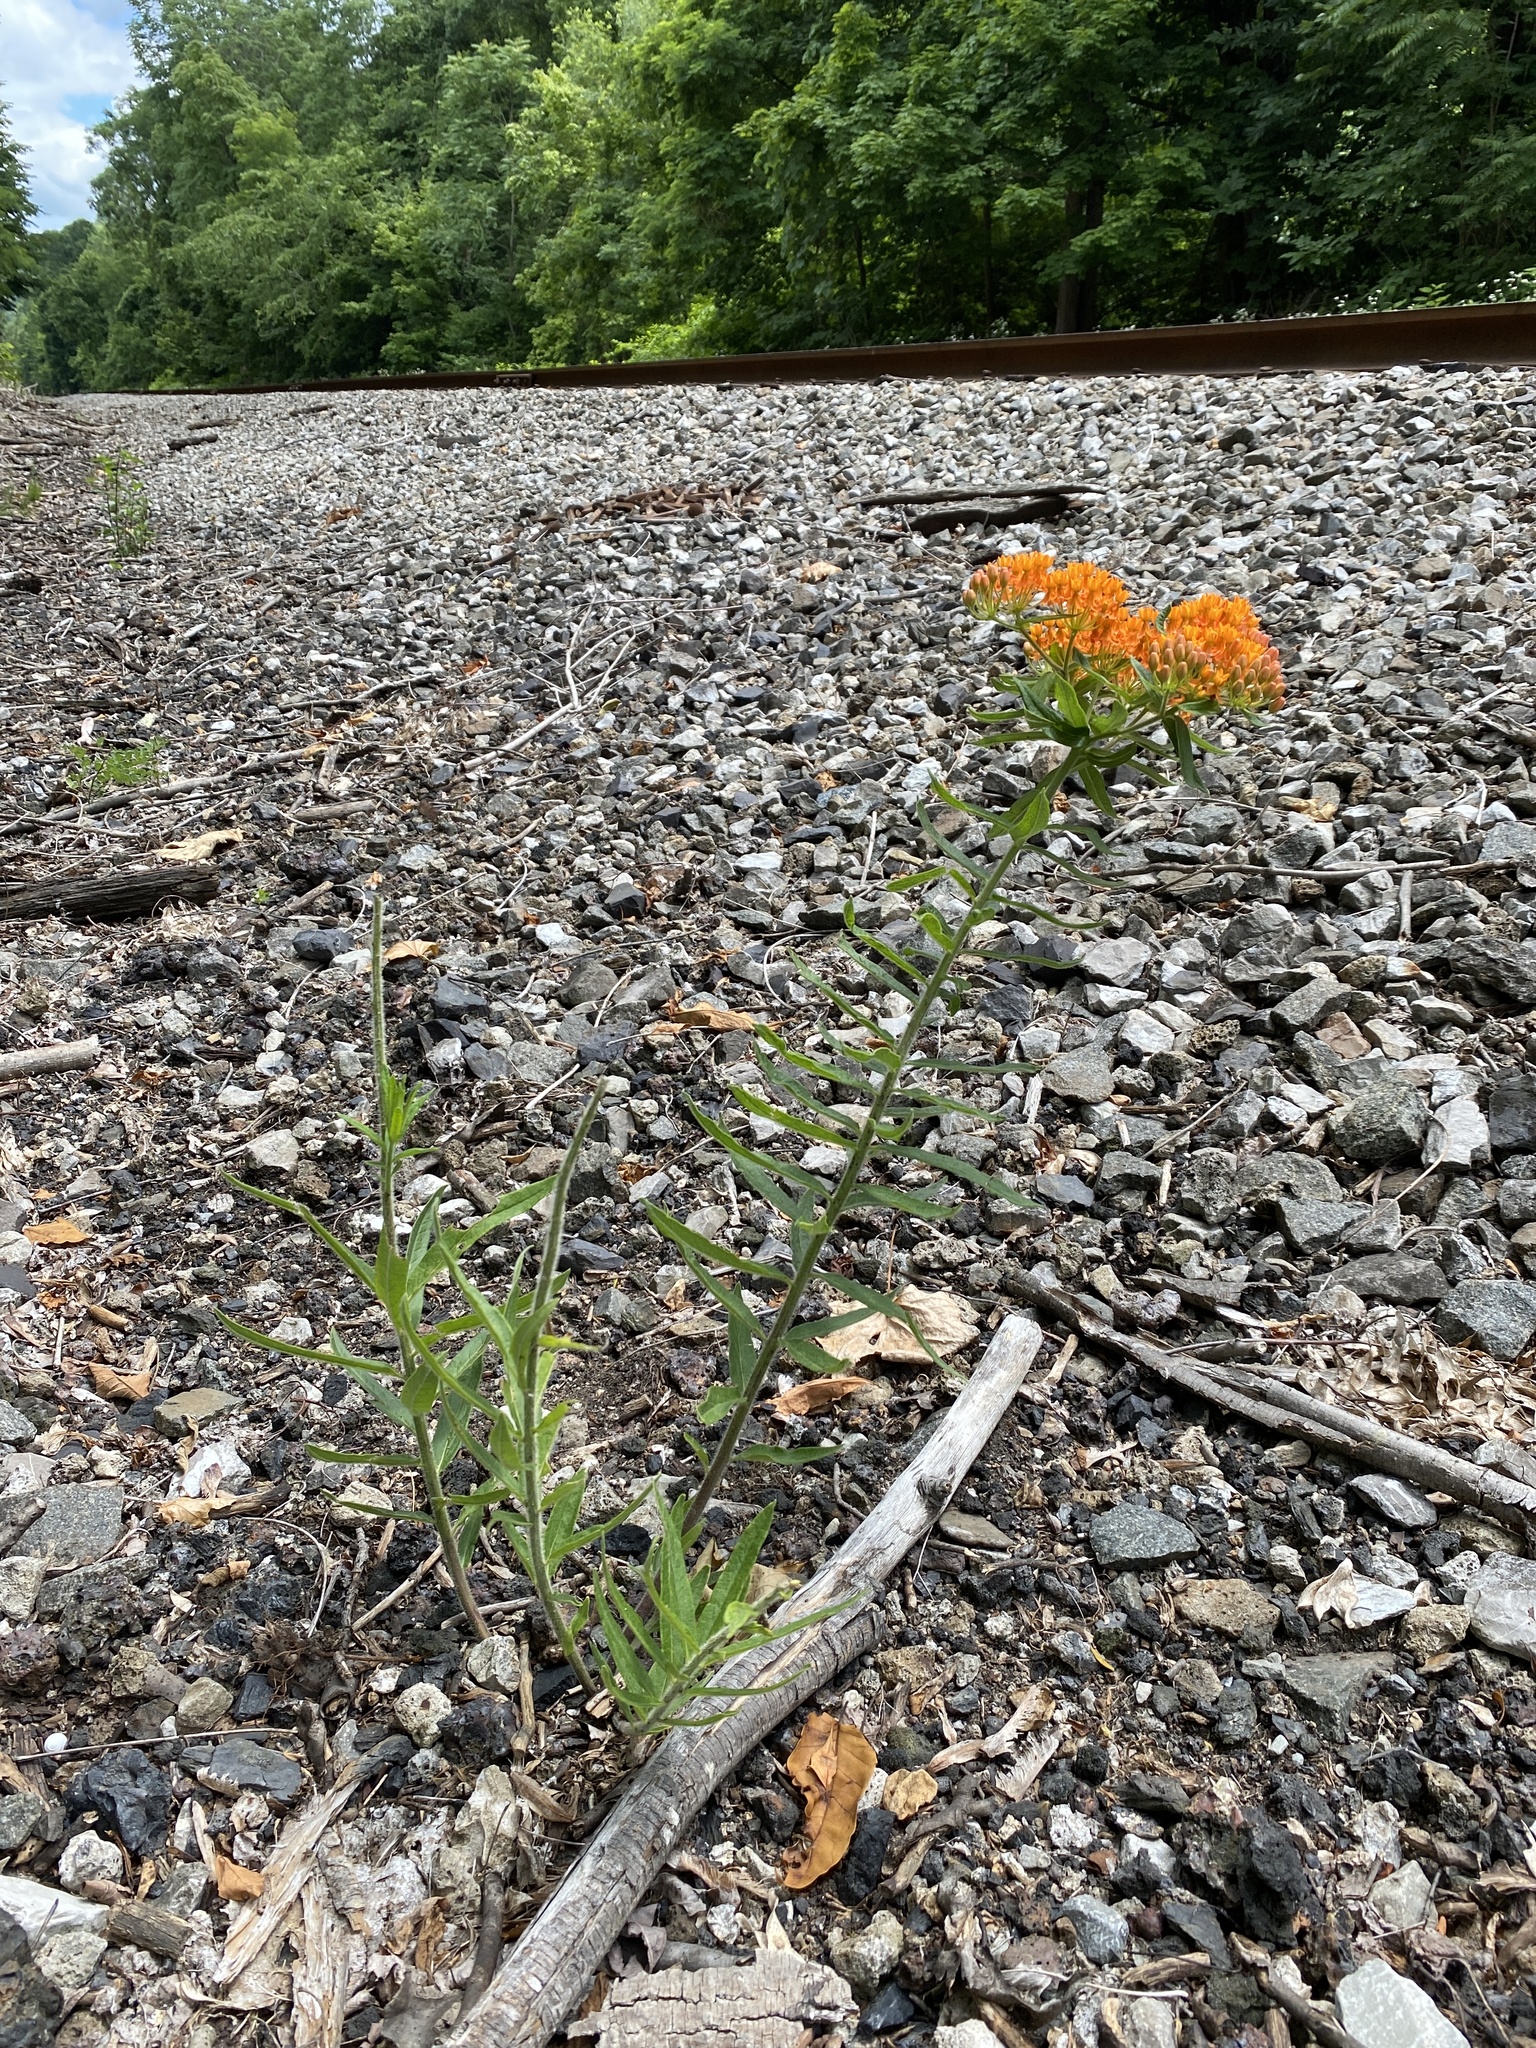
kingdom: Plantae
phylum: Tracheophyta
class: Magnoliopsida
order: Gentianales
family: Apocynaceae
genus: Asclepias
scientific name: Asclepias tuberosa
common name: Butterfly milkweed
